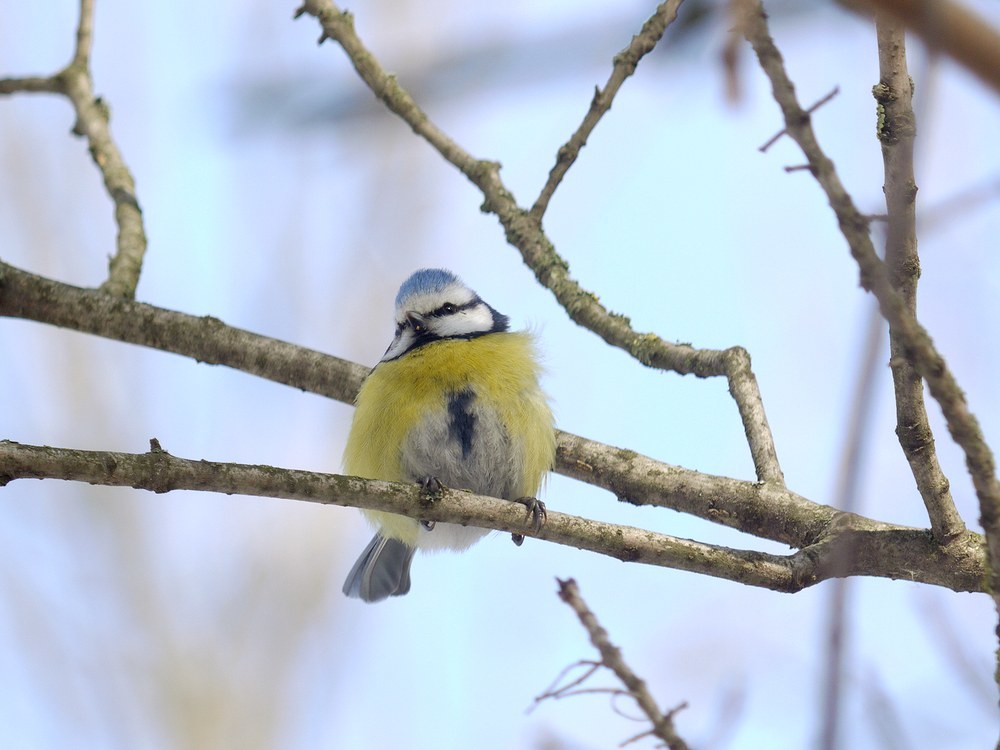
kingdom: Animalia
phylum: Chordata
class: Aves
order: Passeriformes
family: Paridae
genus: Cyanistes
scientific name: Cyanistes caeruleus
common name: Eurasian blue tit
